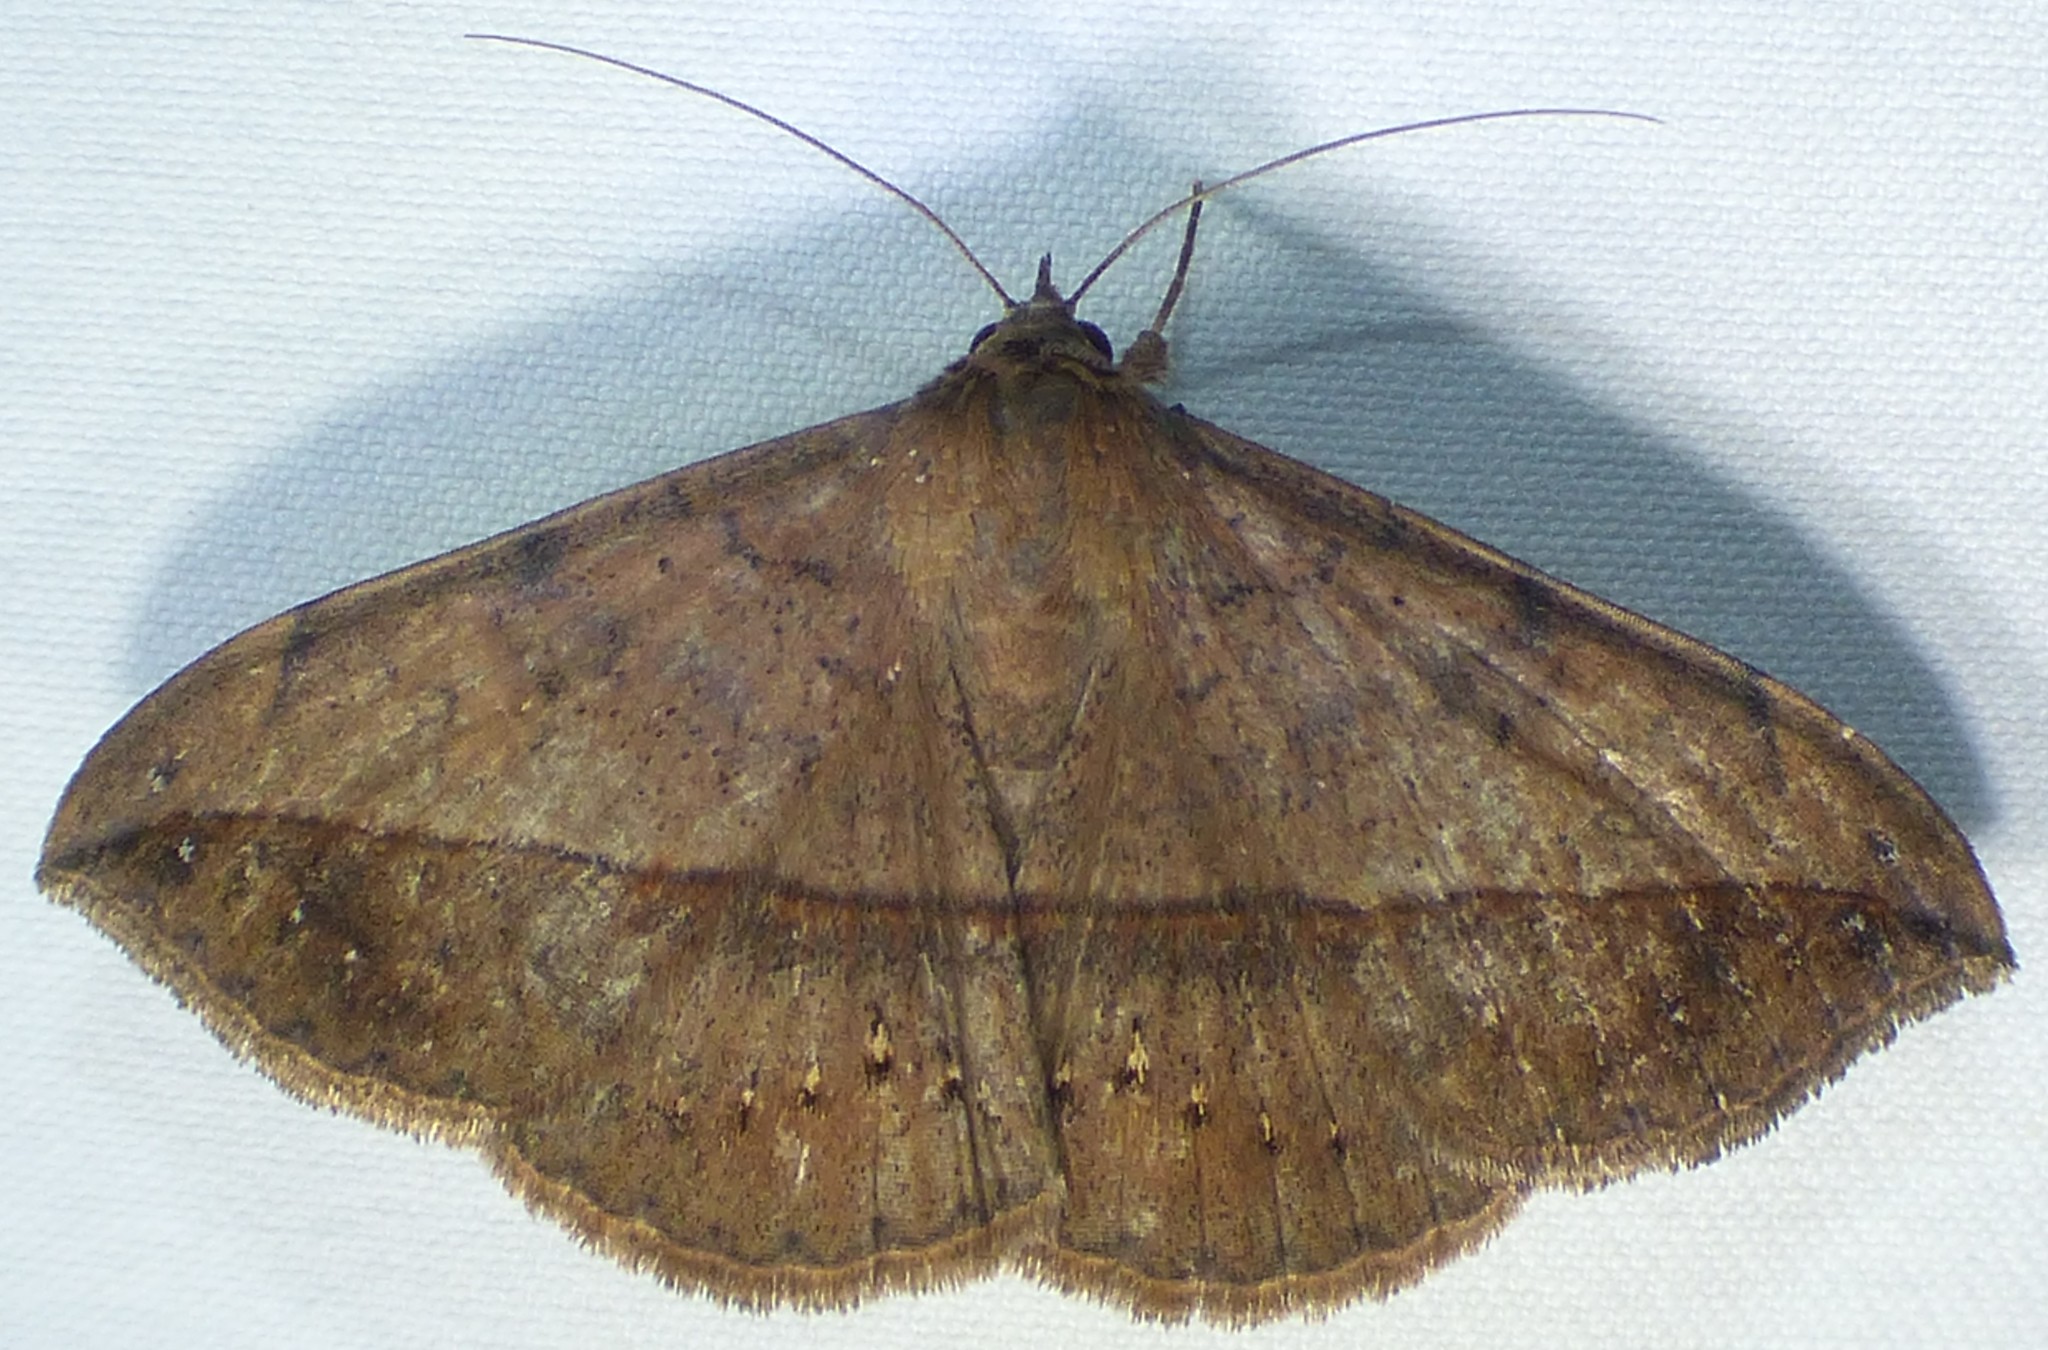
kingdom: Animalia
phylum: Arthropoda
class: Insecta
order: Lepidoptera
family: Erebidae
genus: Anticarsia
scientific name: Anticarsia gemmatalis
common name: Cutworm moth
